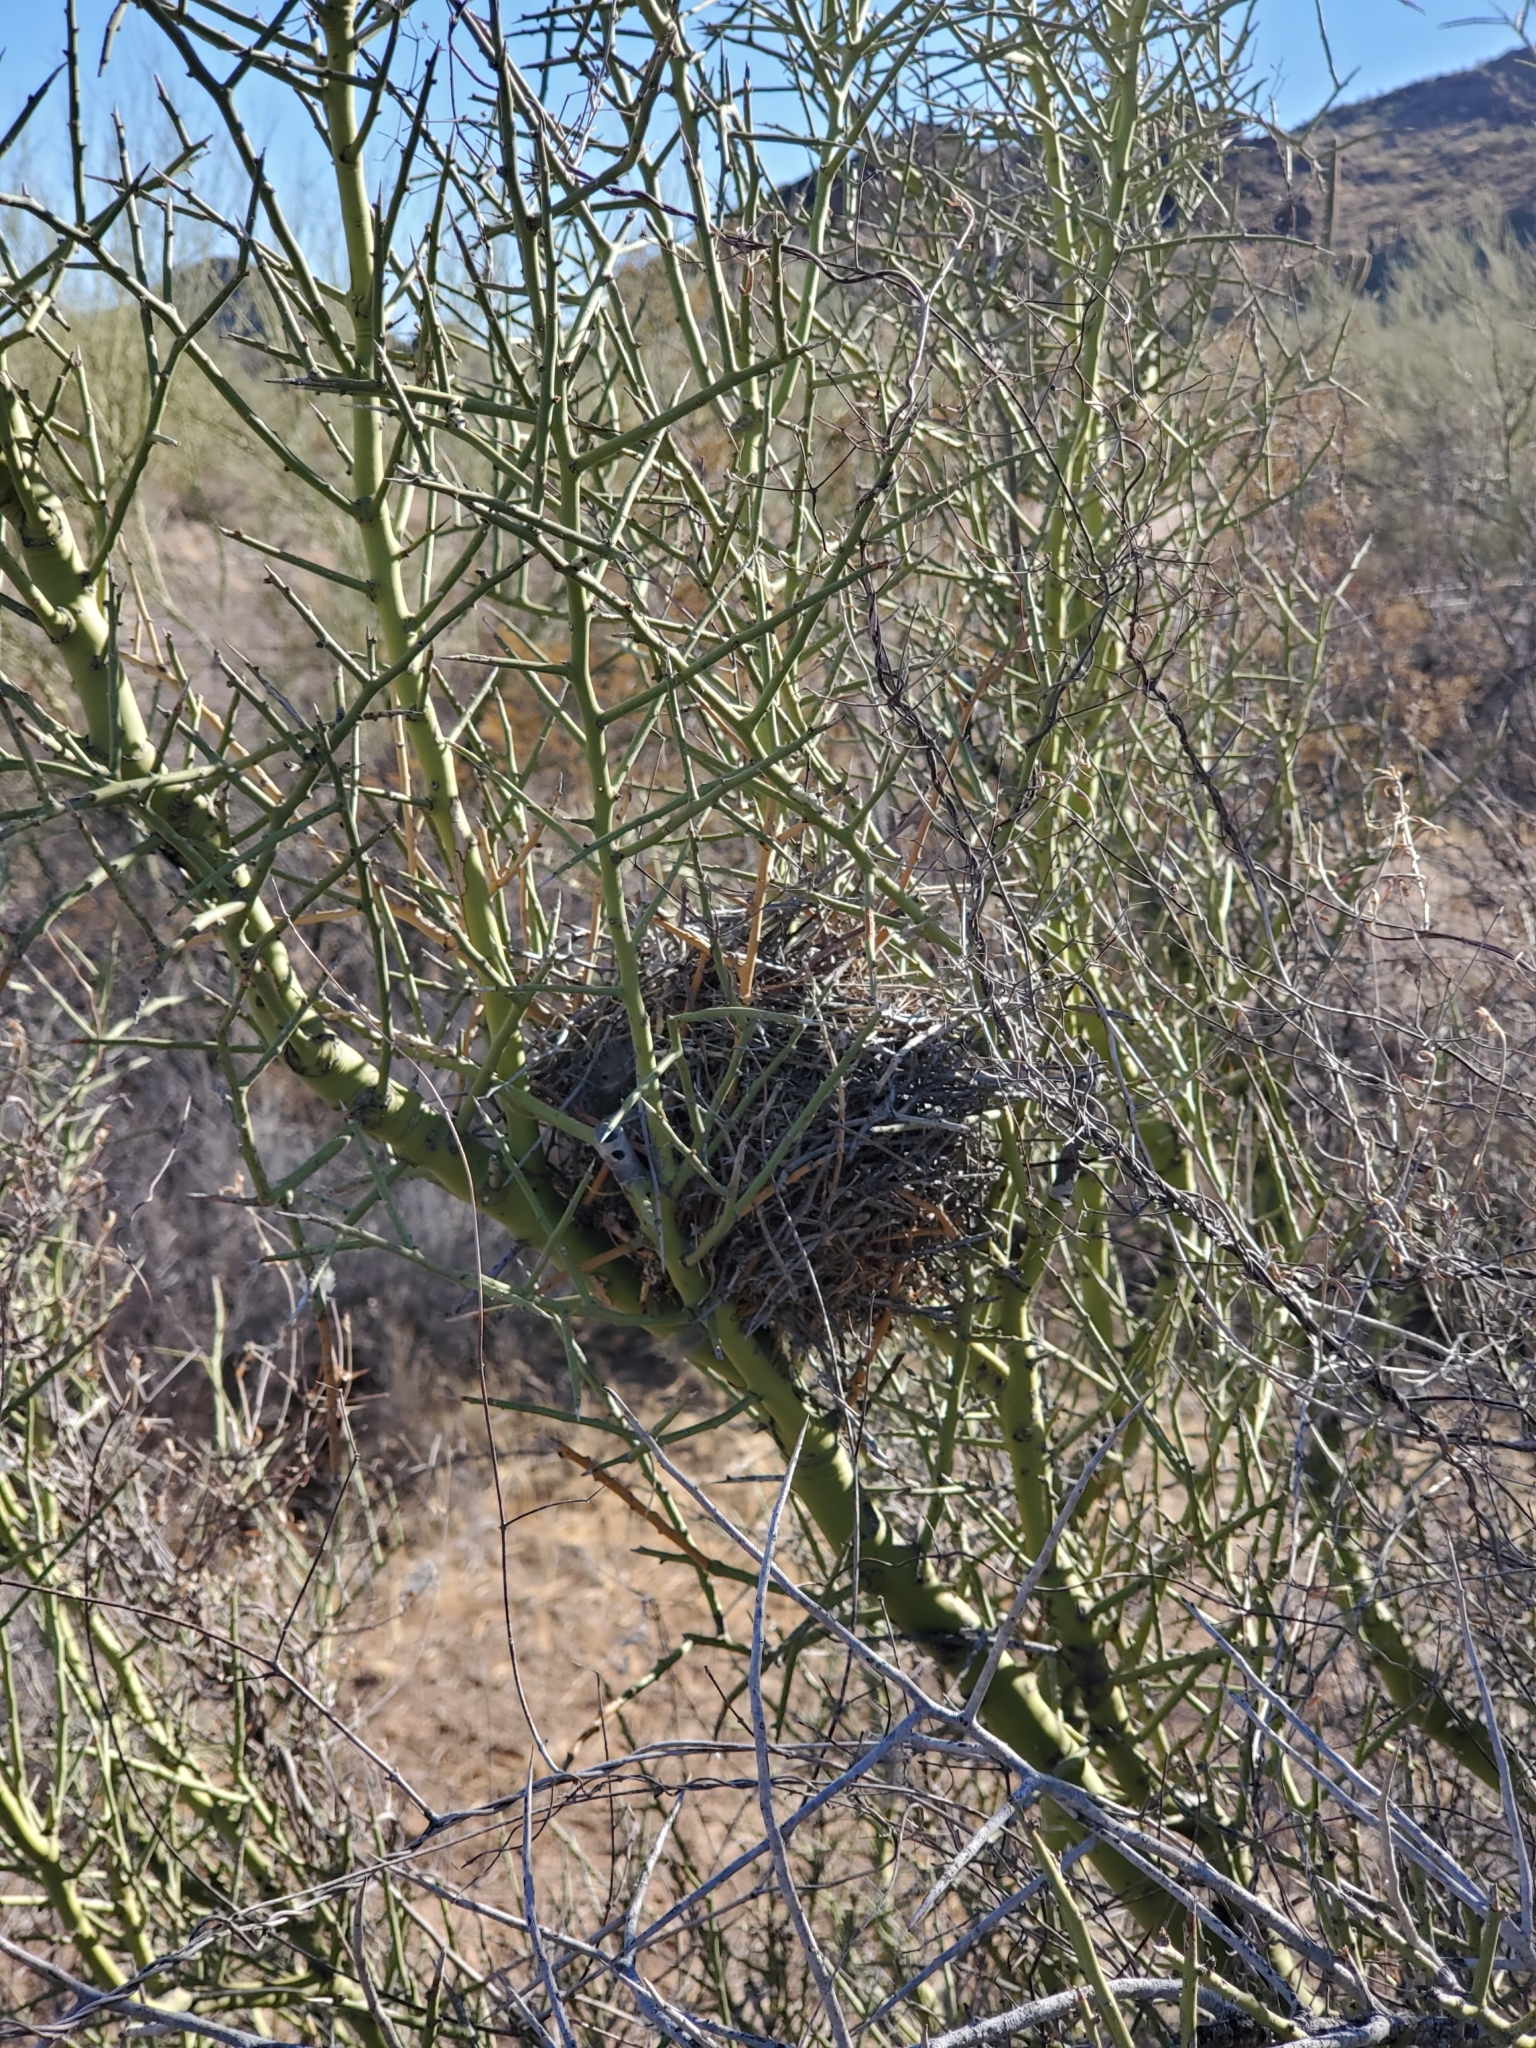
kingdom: Animalia
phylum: Chordata
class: Aves
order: Passeriformes
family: Remizidae
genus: Auriparus
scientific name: Auriparus flaviceps
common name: Verdin
